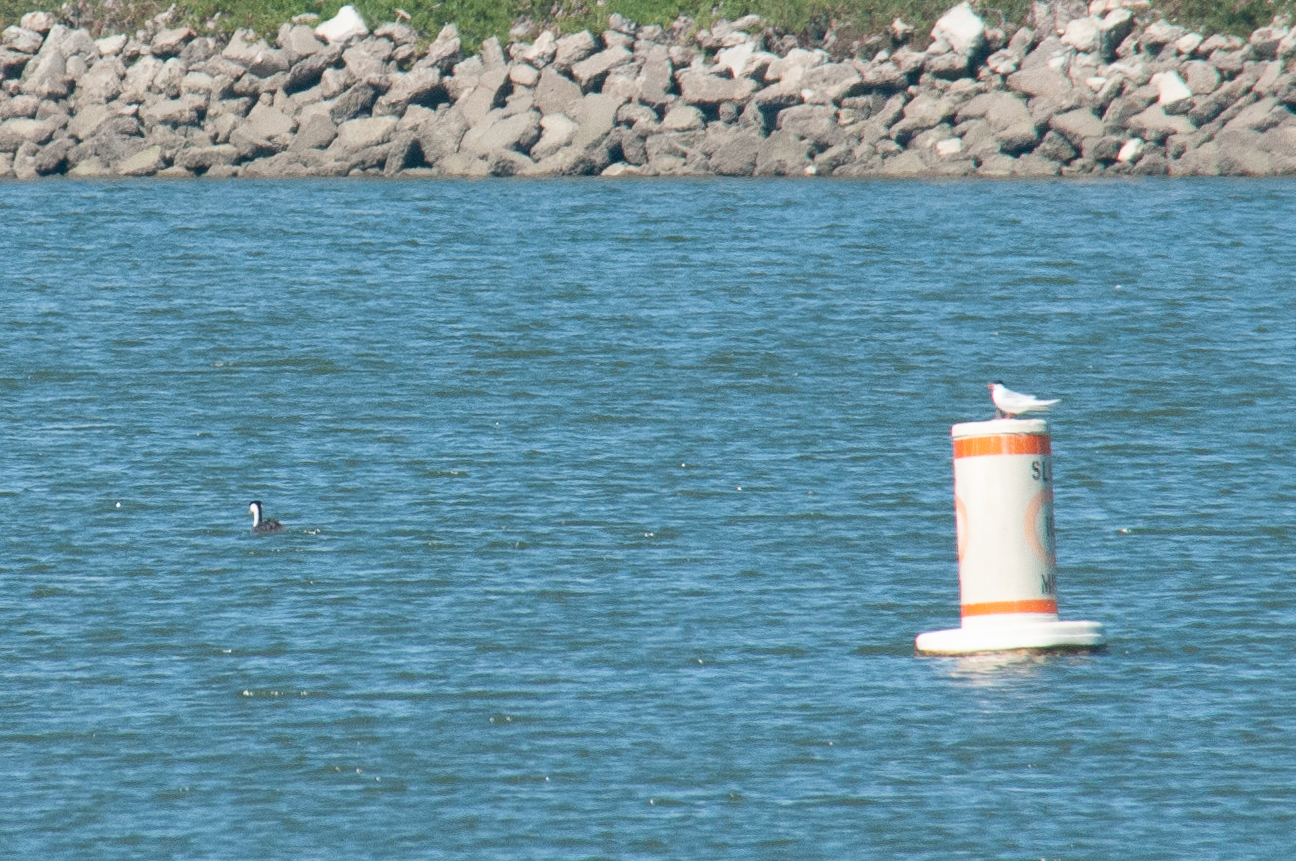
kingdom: Animalia
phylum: Chordata
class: Aves
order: Charadriiformes
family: Laridae
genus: Sterna
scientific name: Sterna forsteri
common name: Forster's tern
